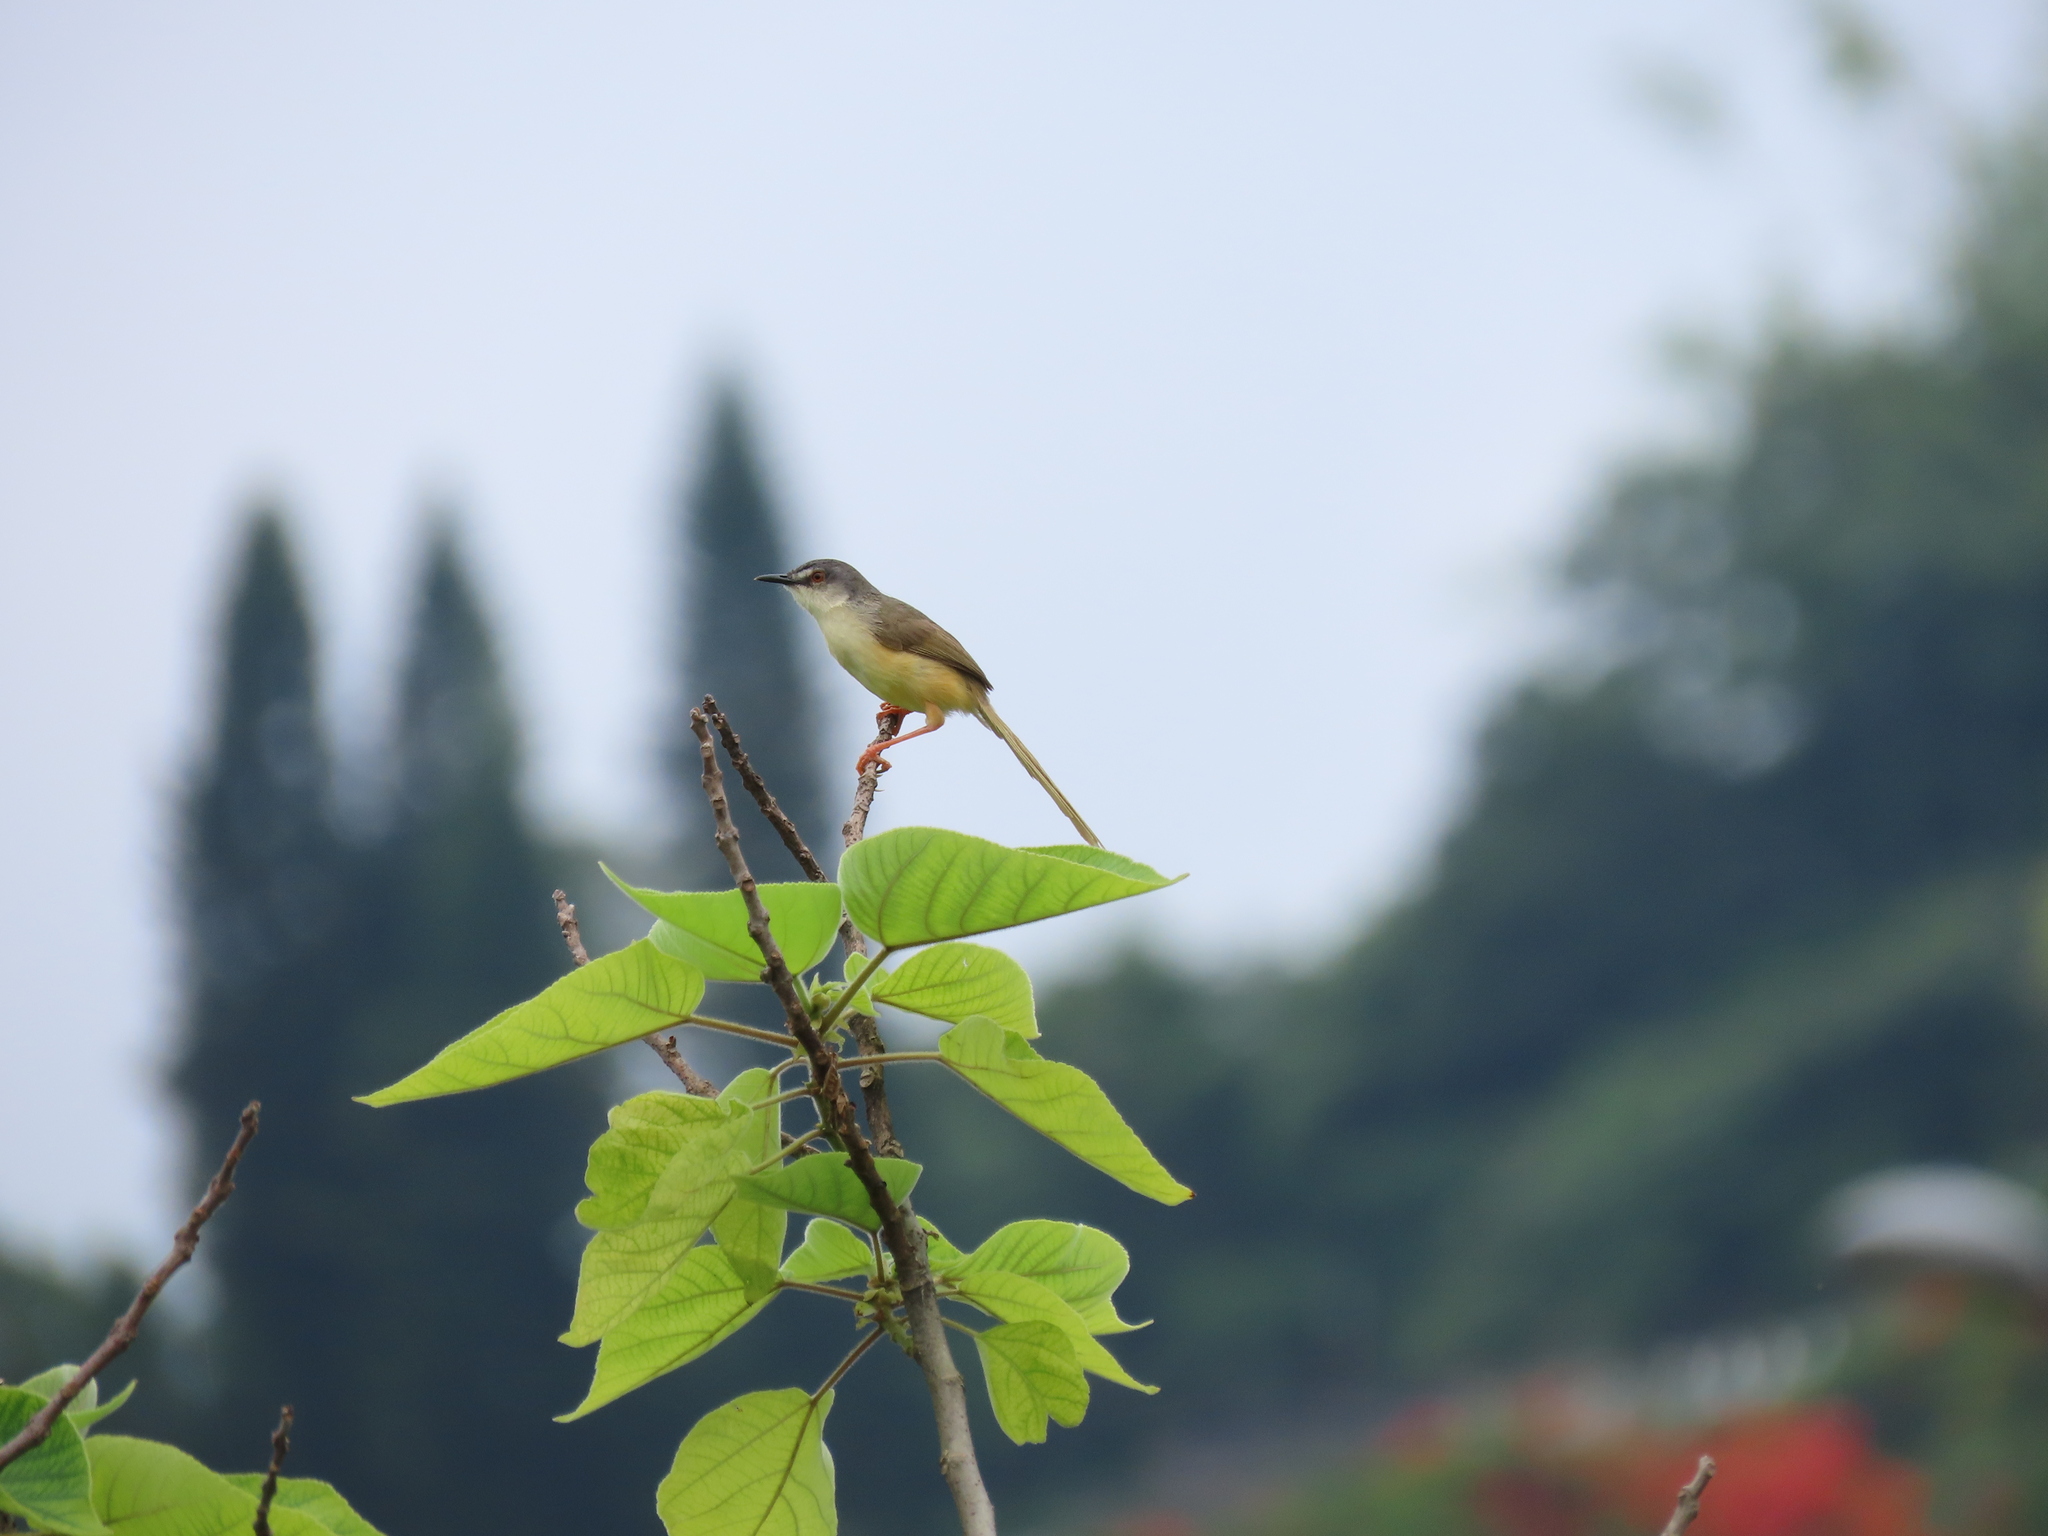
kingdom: Animalia
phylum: Chordata
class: Aves
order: Passeriformes
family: Cisticolidae
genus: Prinia
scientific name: Prinia flaviventris
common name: Yellow-bellied prinia
